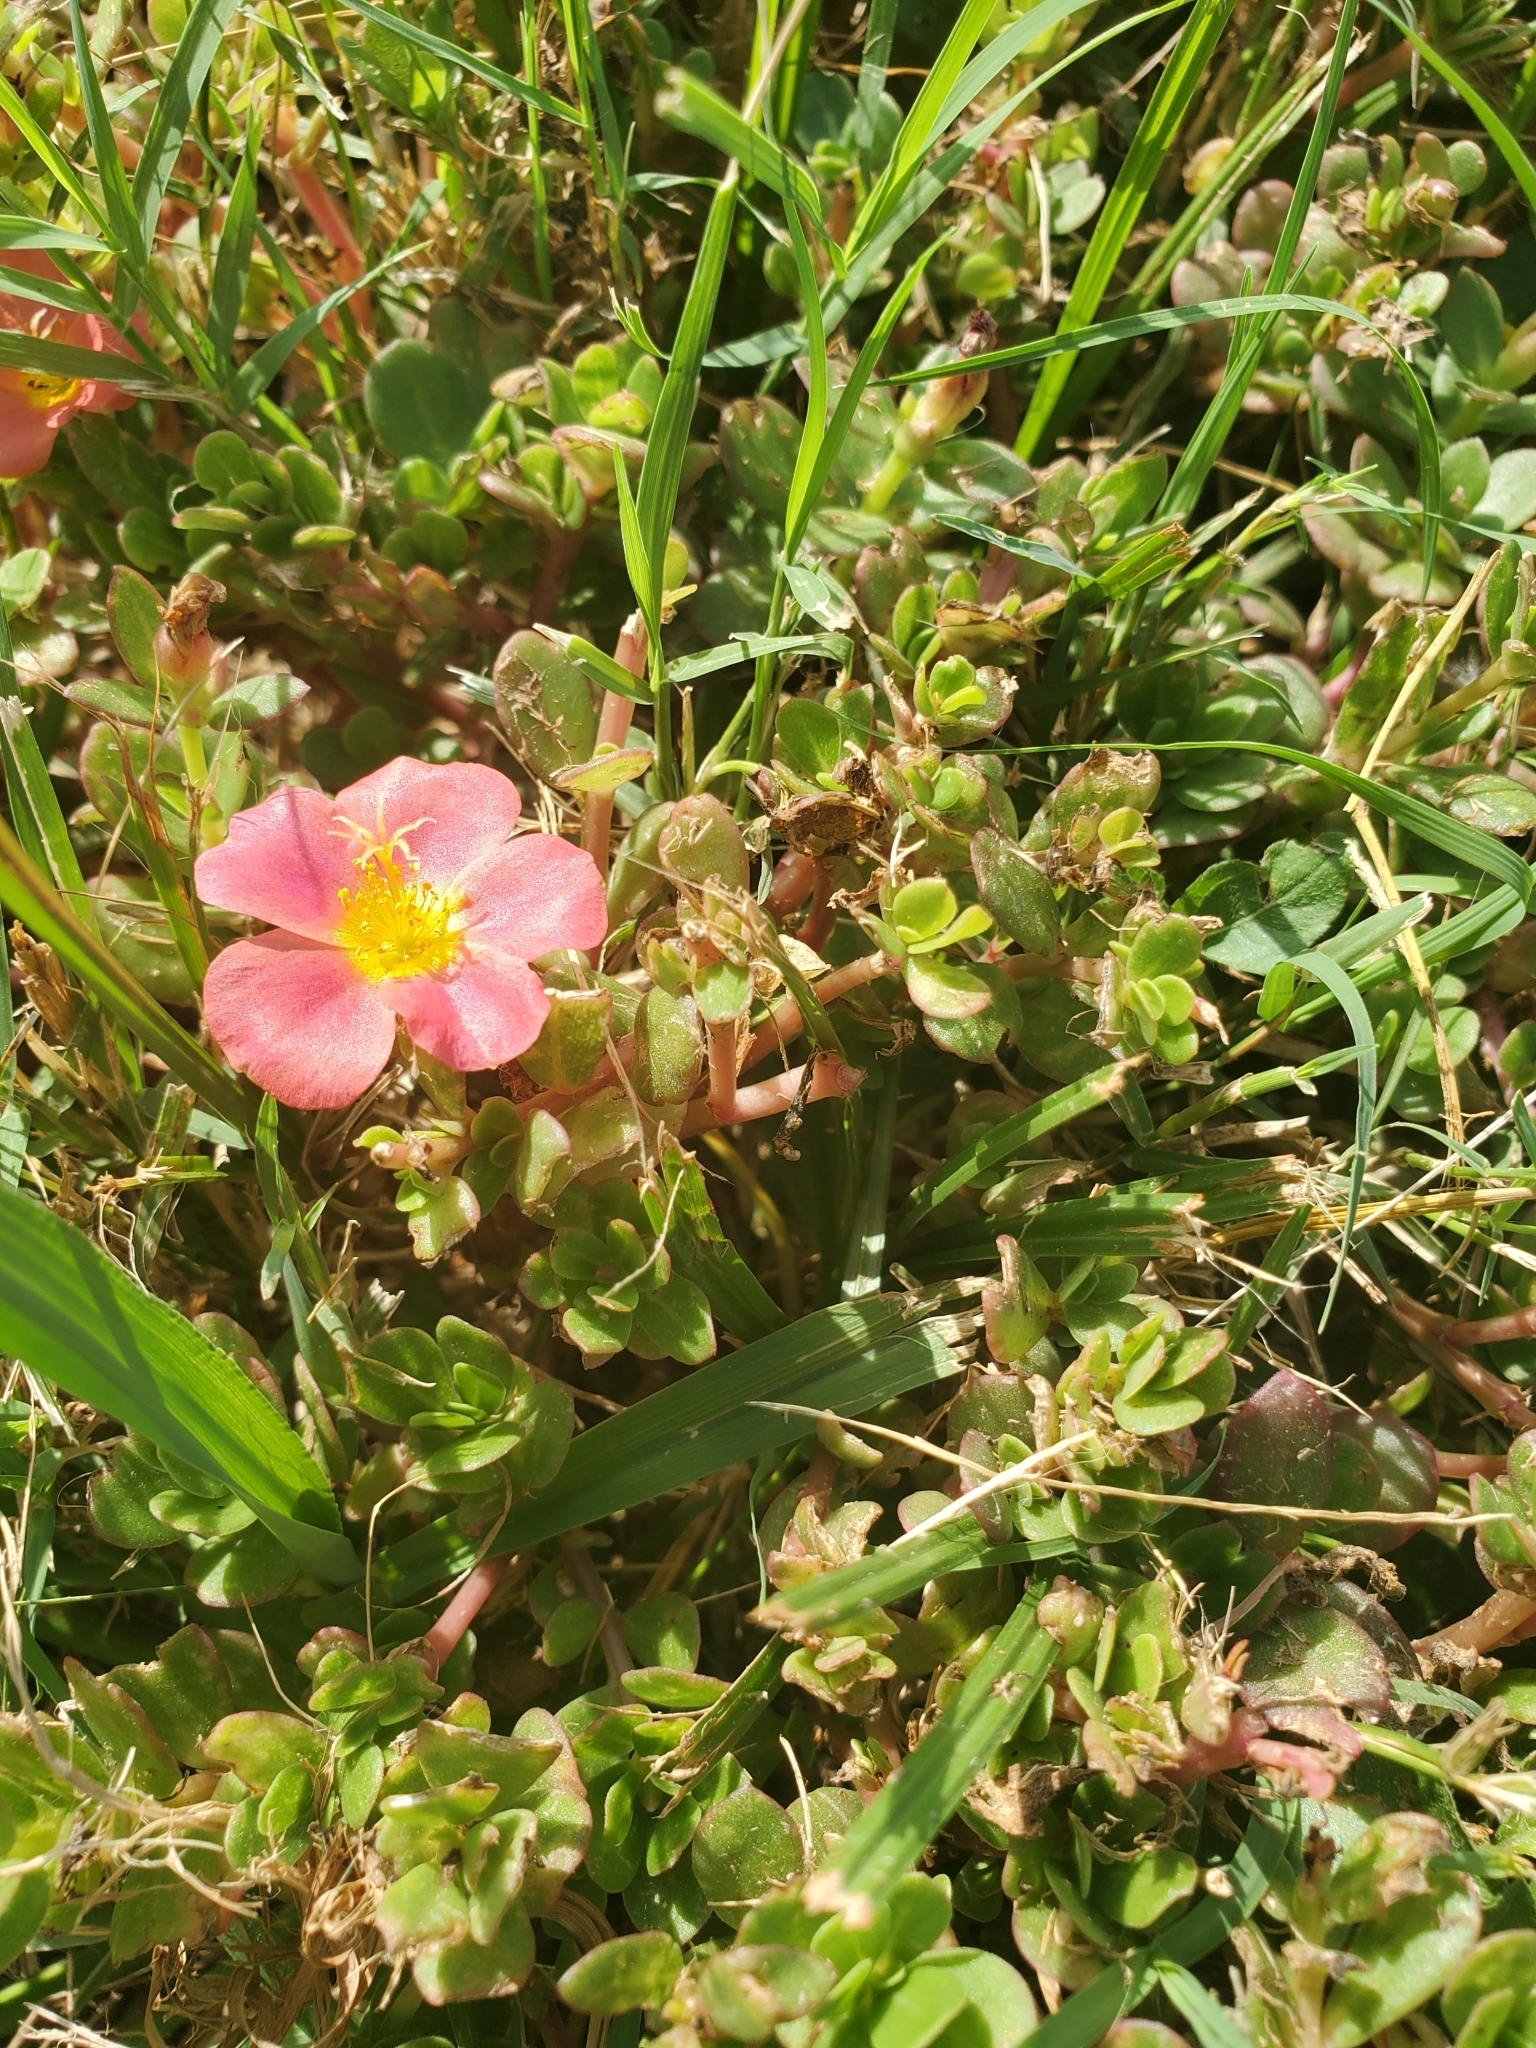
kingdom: Plantae
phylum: Tracheophyta
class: Magnoliopsida
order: Caryophyllales
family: Portulacaceae
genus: Portulaca
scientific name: Portulaca umbraticola
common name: Wingpod purslane
